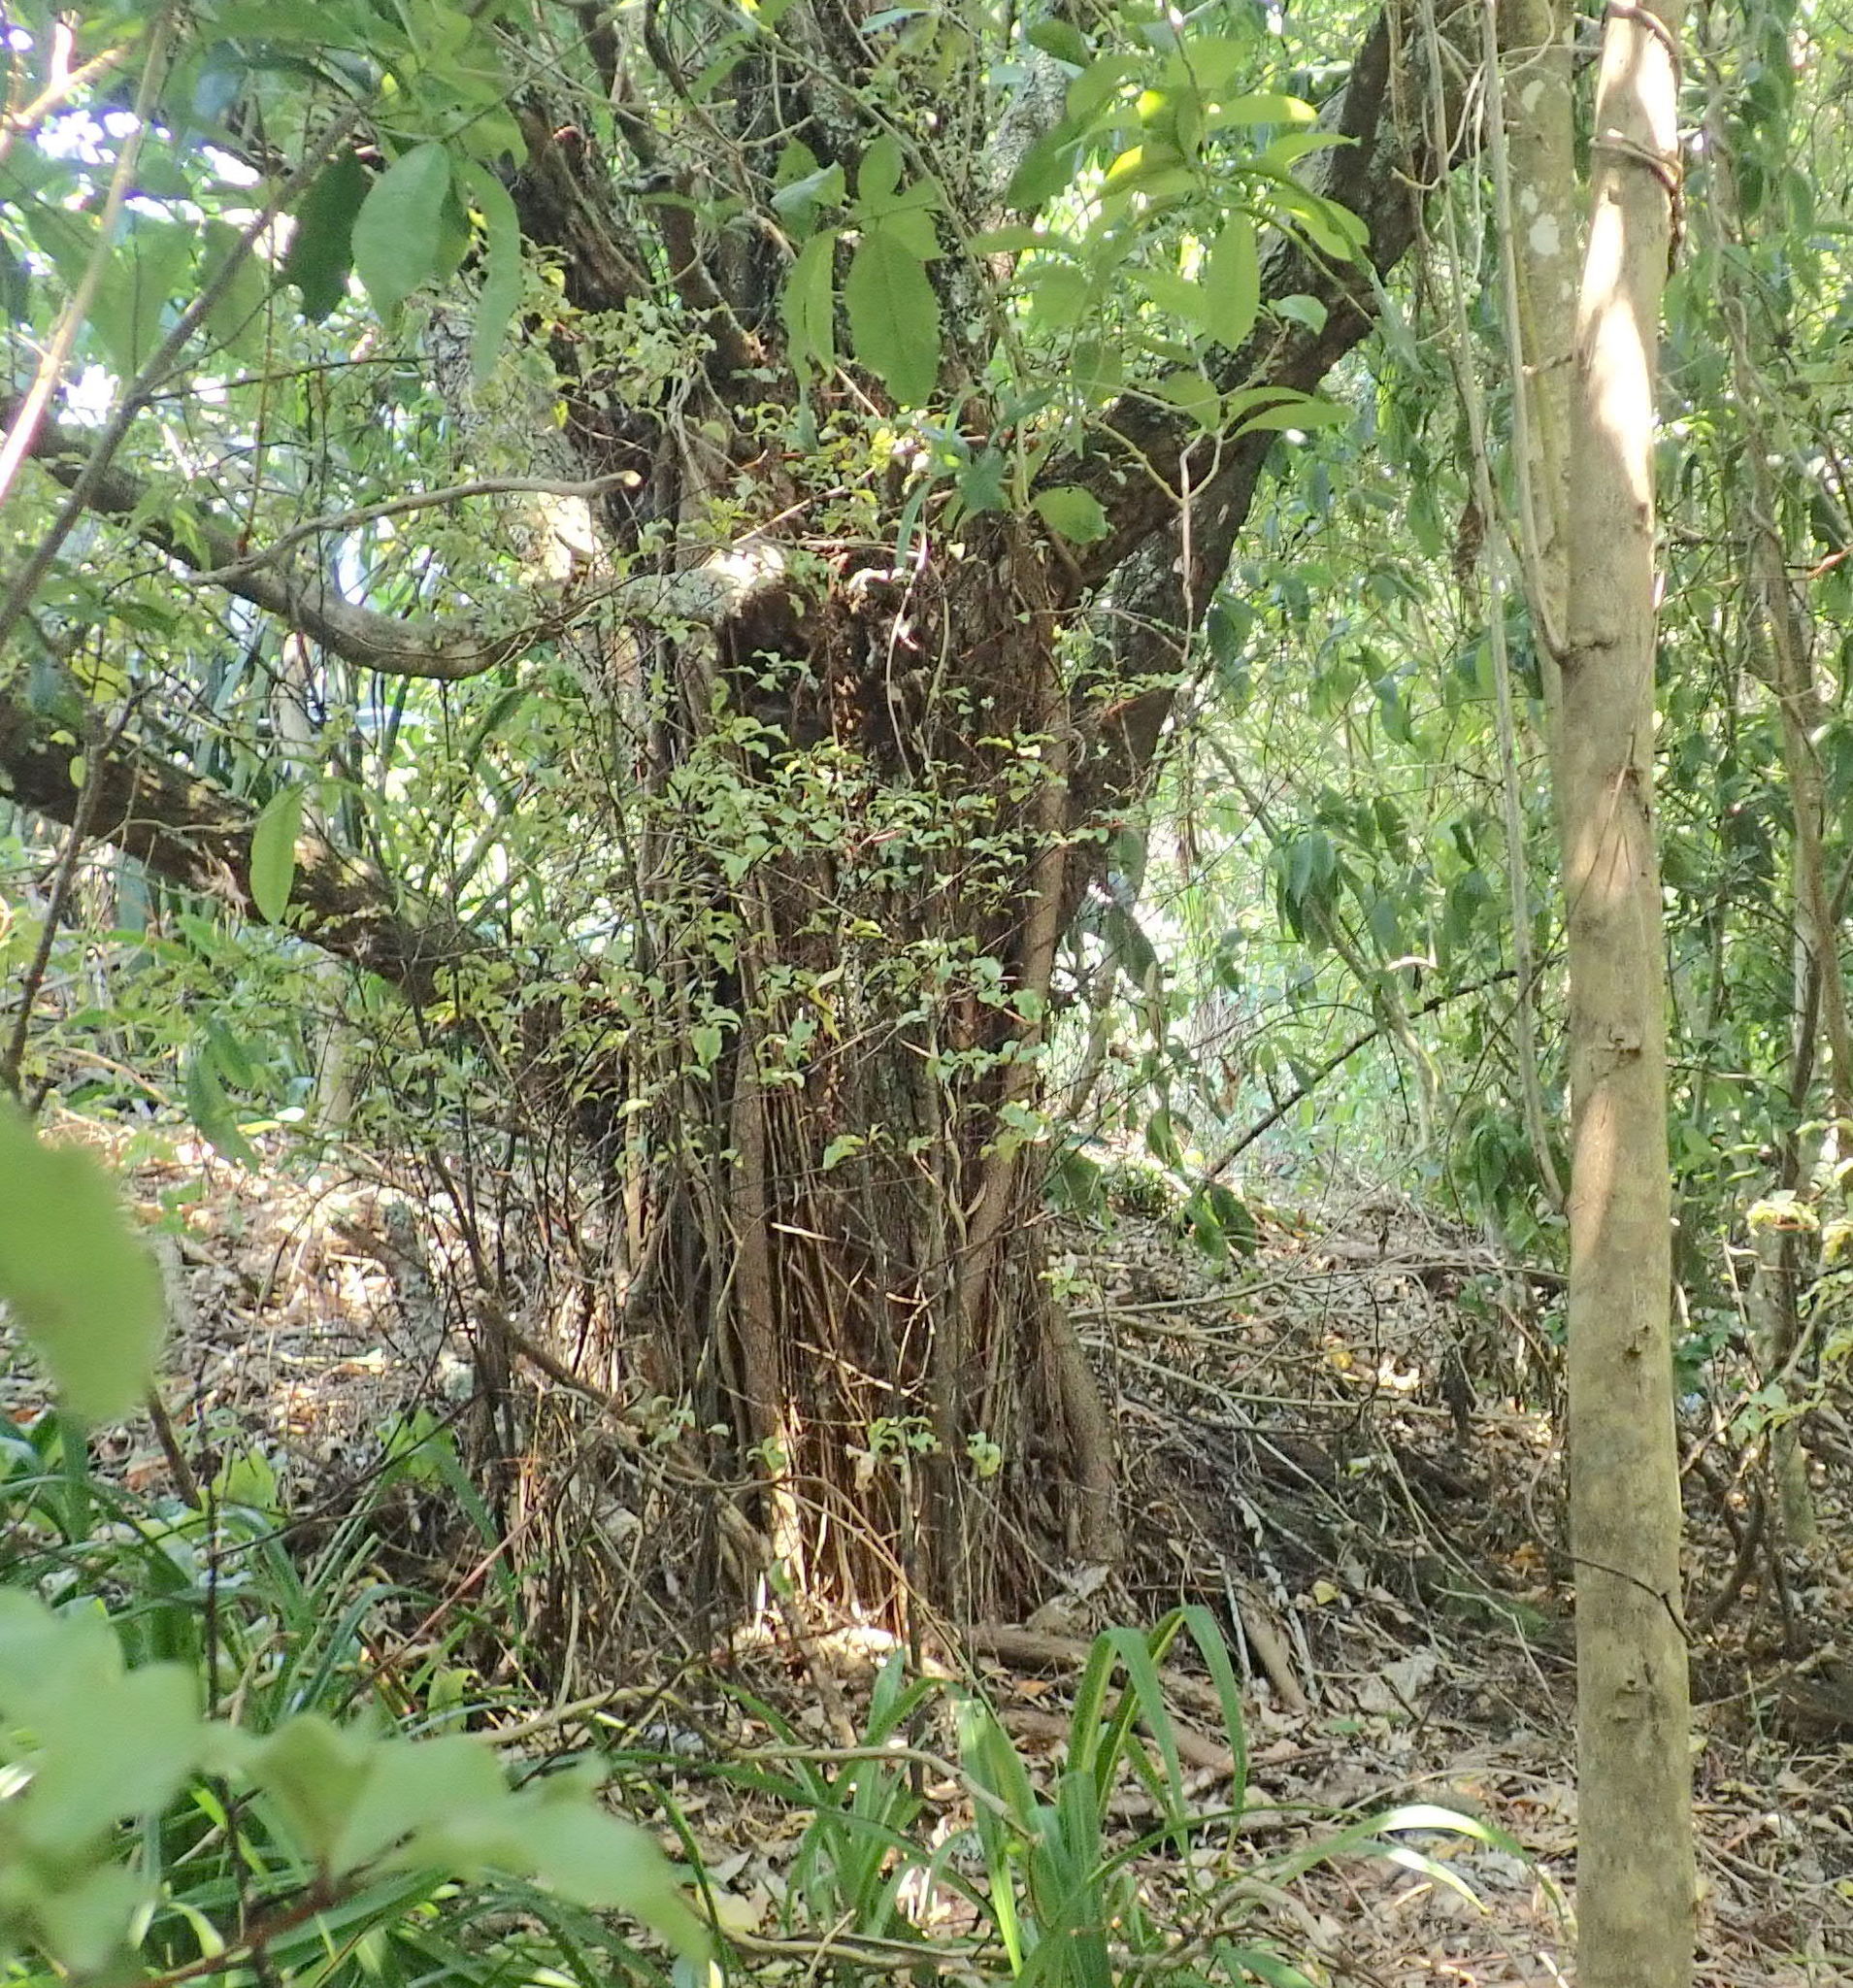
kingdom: Plantae
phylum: Tracheophyta
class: Magnoliopsida
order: Myrtales
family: Myrtaceae
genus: Metrosideros
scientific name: Metrosideros excelsa
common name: New zealand christmastree
